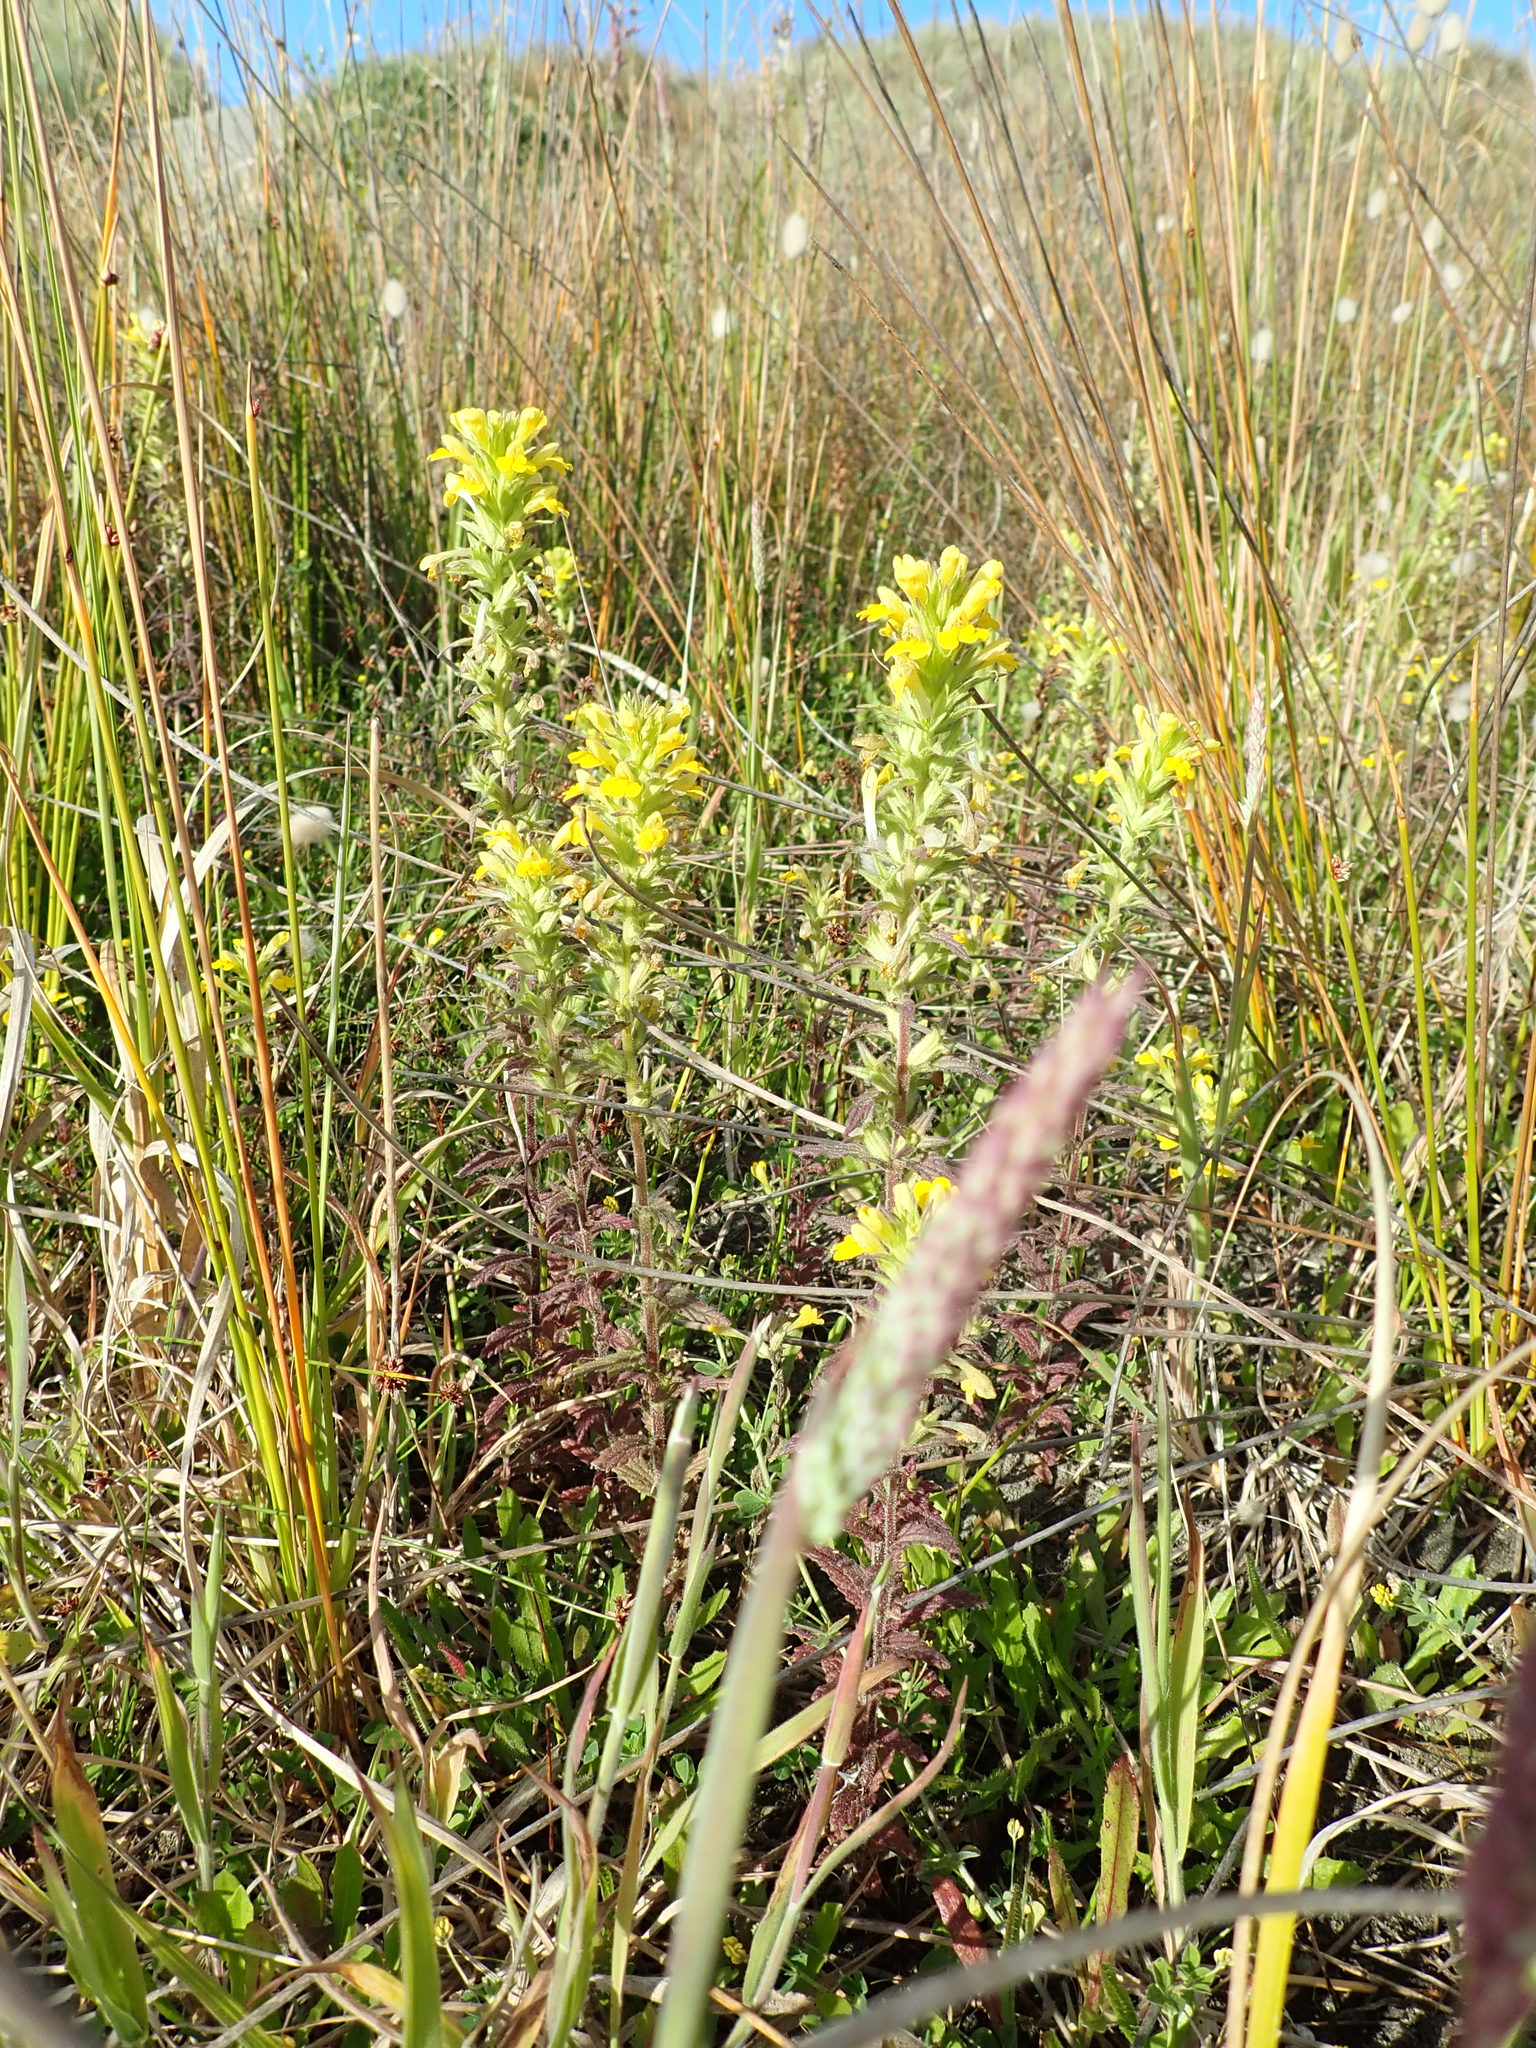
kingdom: Plantae
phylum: Tracheophyta
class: Magnoliopsida
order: Lamiales
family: Orobanchaceae
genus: Bellardia
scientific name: Bellardia viscosa
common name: Sticky parentucellia
